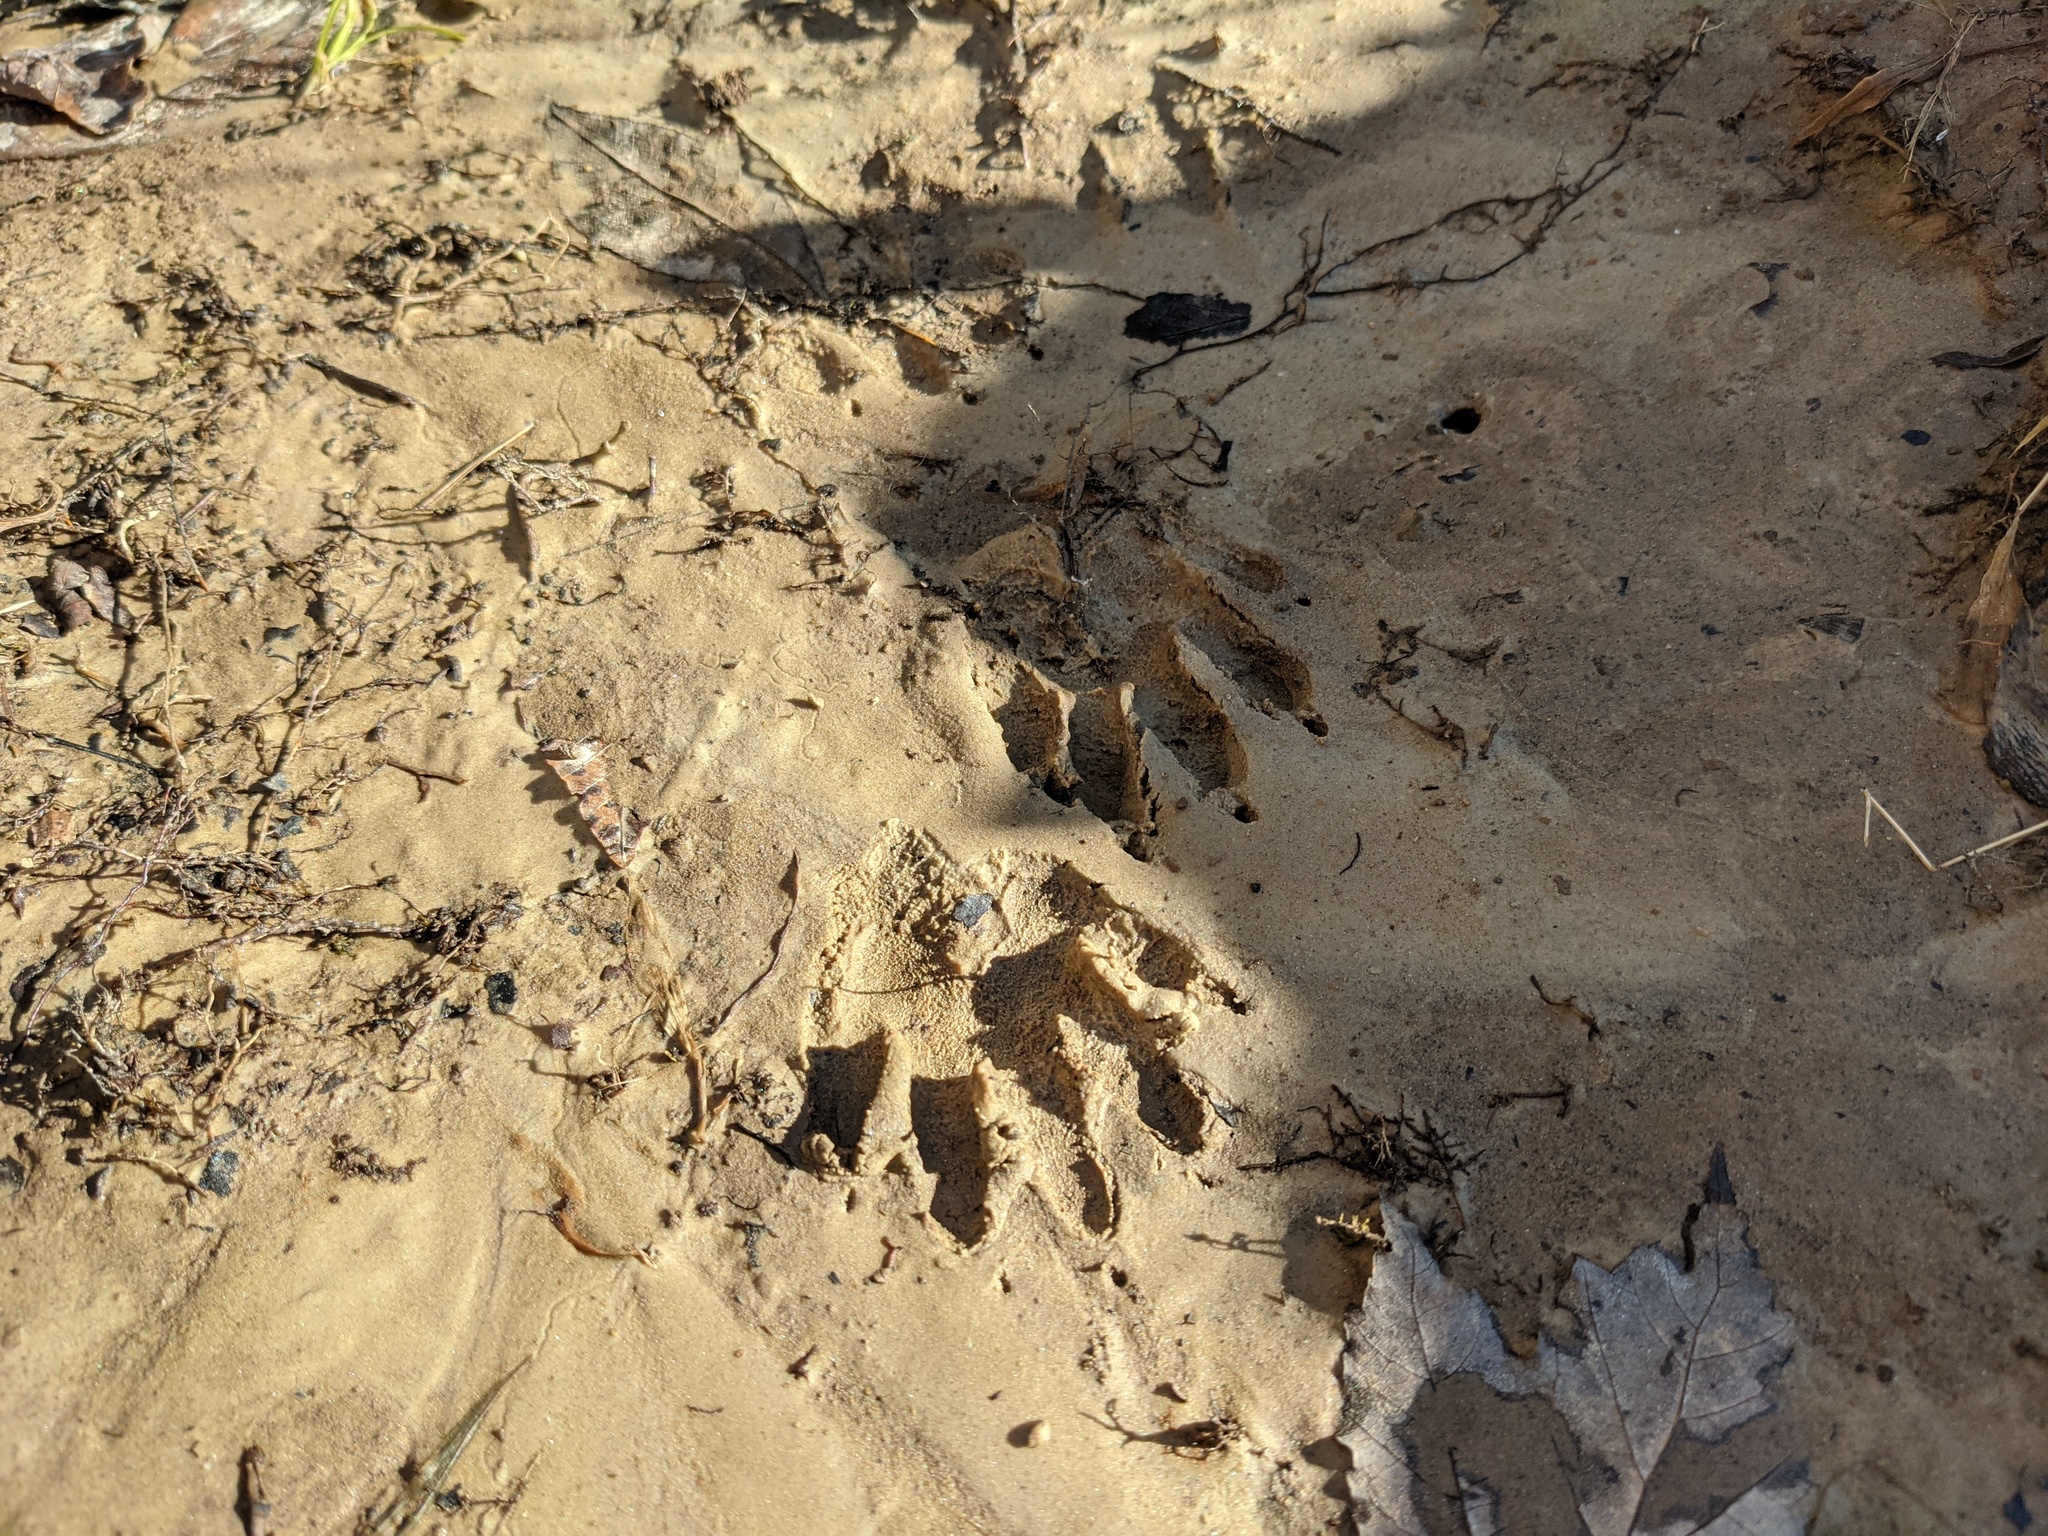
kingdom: Animalia
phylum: Chordata
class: Mammalia
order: Carnivora
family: Procyonidae
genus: Procyon
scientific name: Procyon lotor
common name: Raccoon
